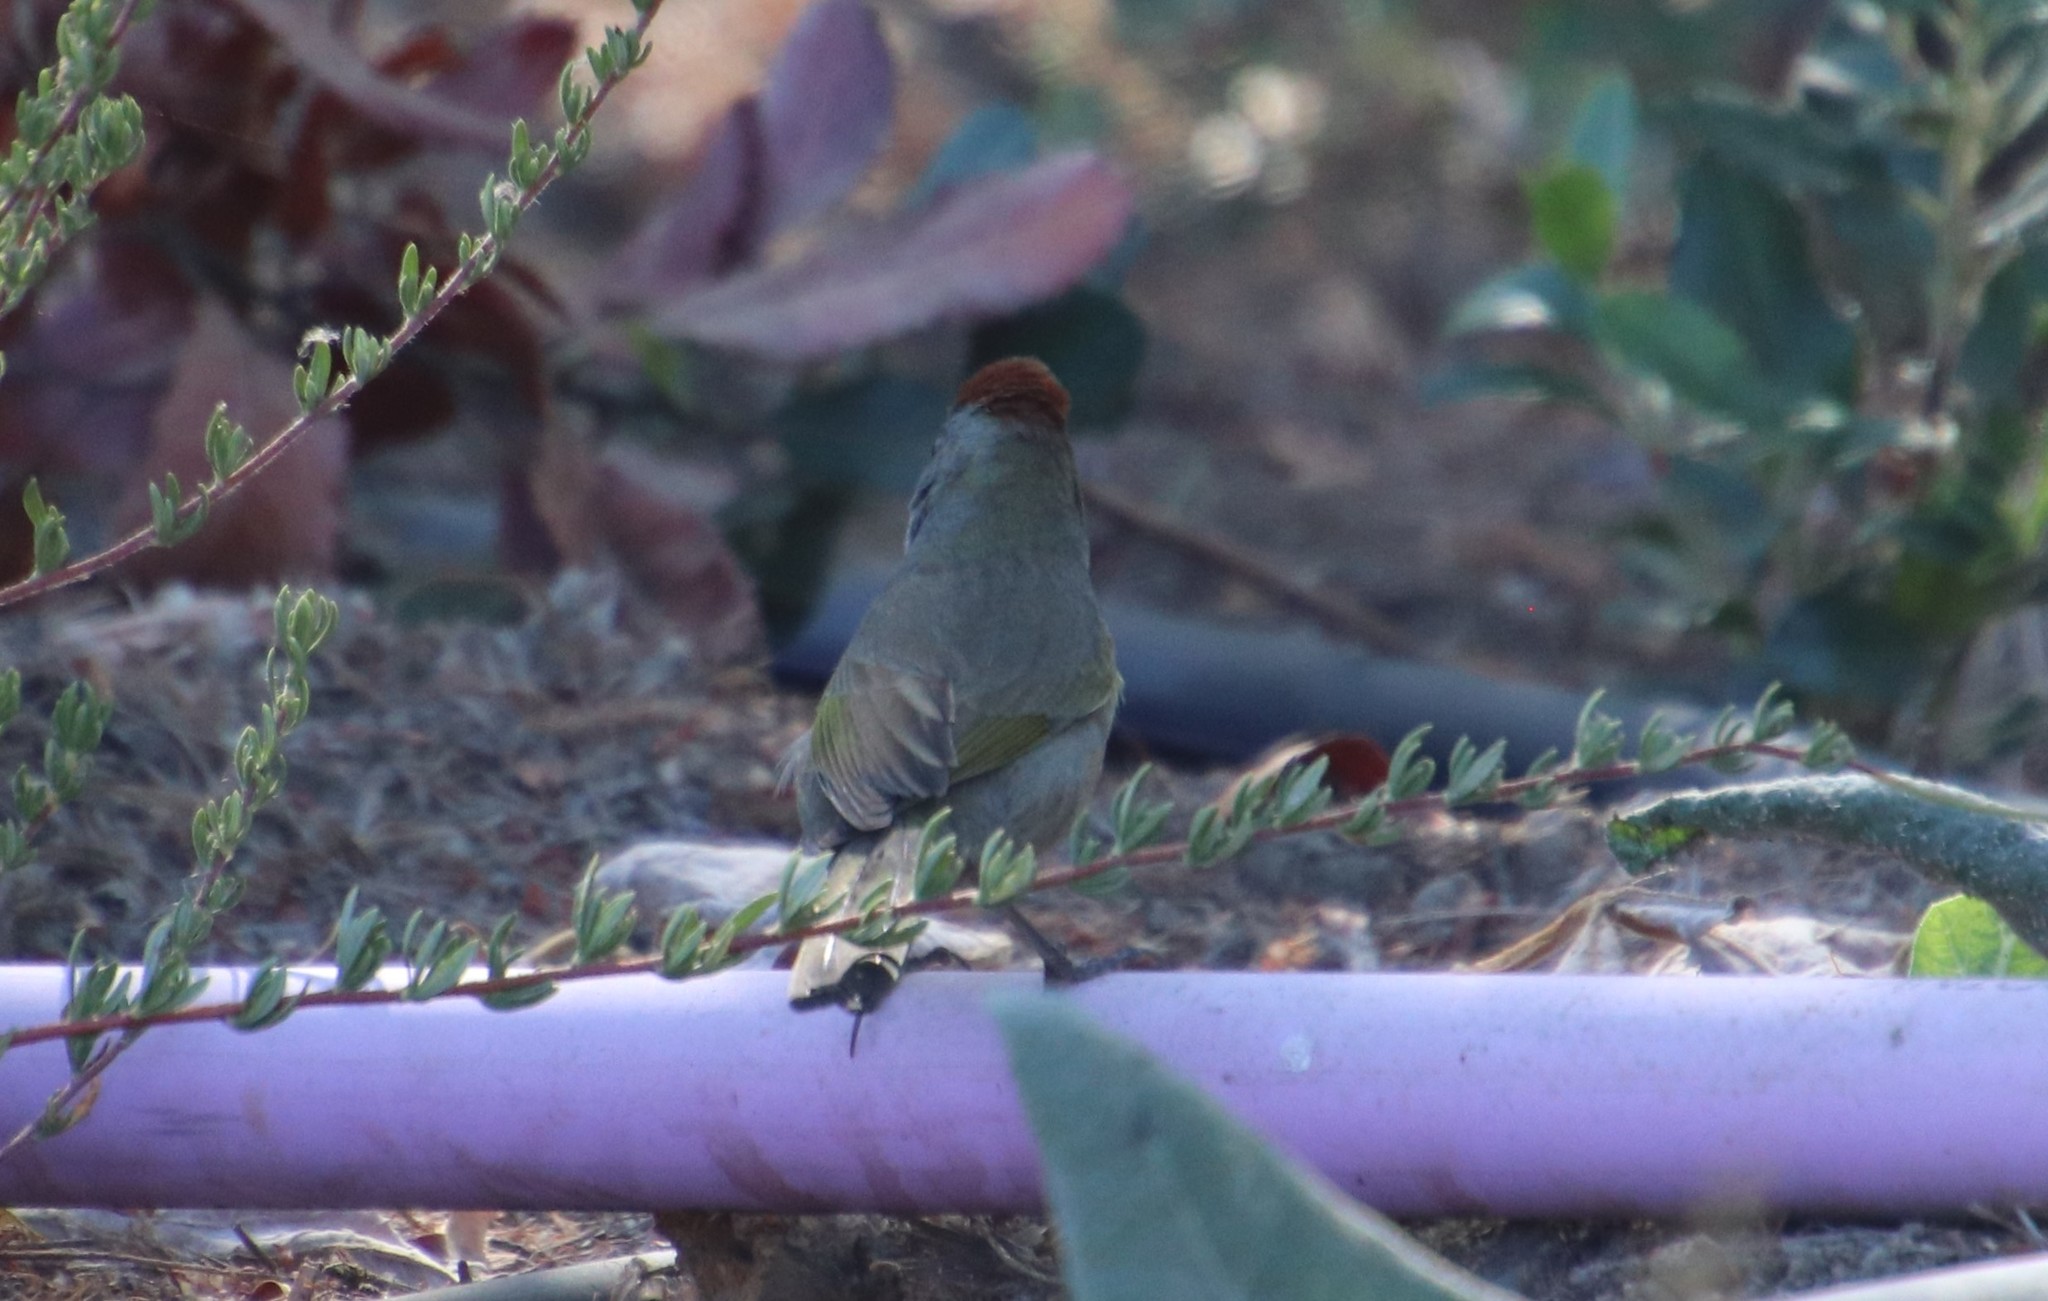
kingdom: Animalia
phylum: Chordata
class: Aves
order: Passeriformes
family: Passerellidae
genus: Pipilo
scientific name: Pipilo chlorurus
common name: Green-tailed towhee
